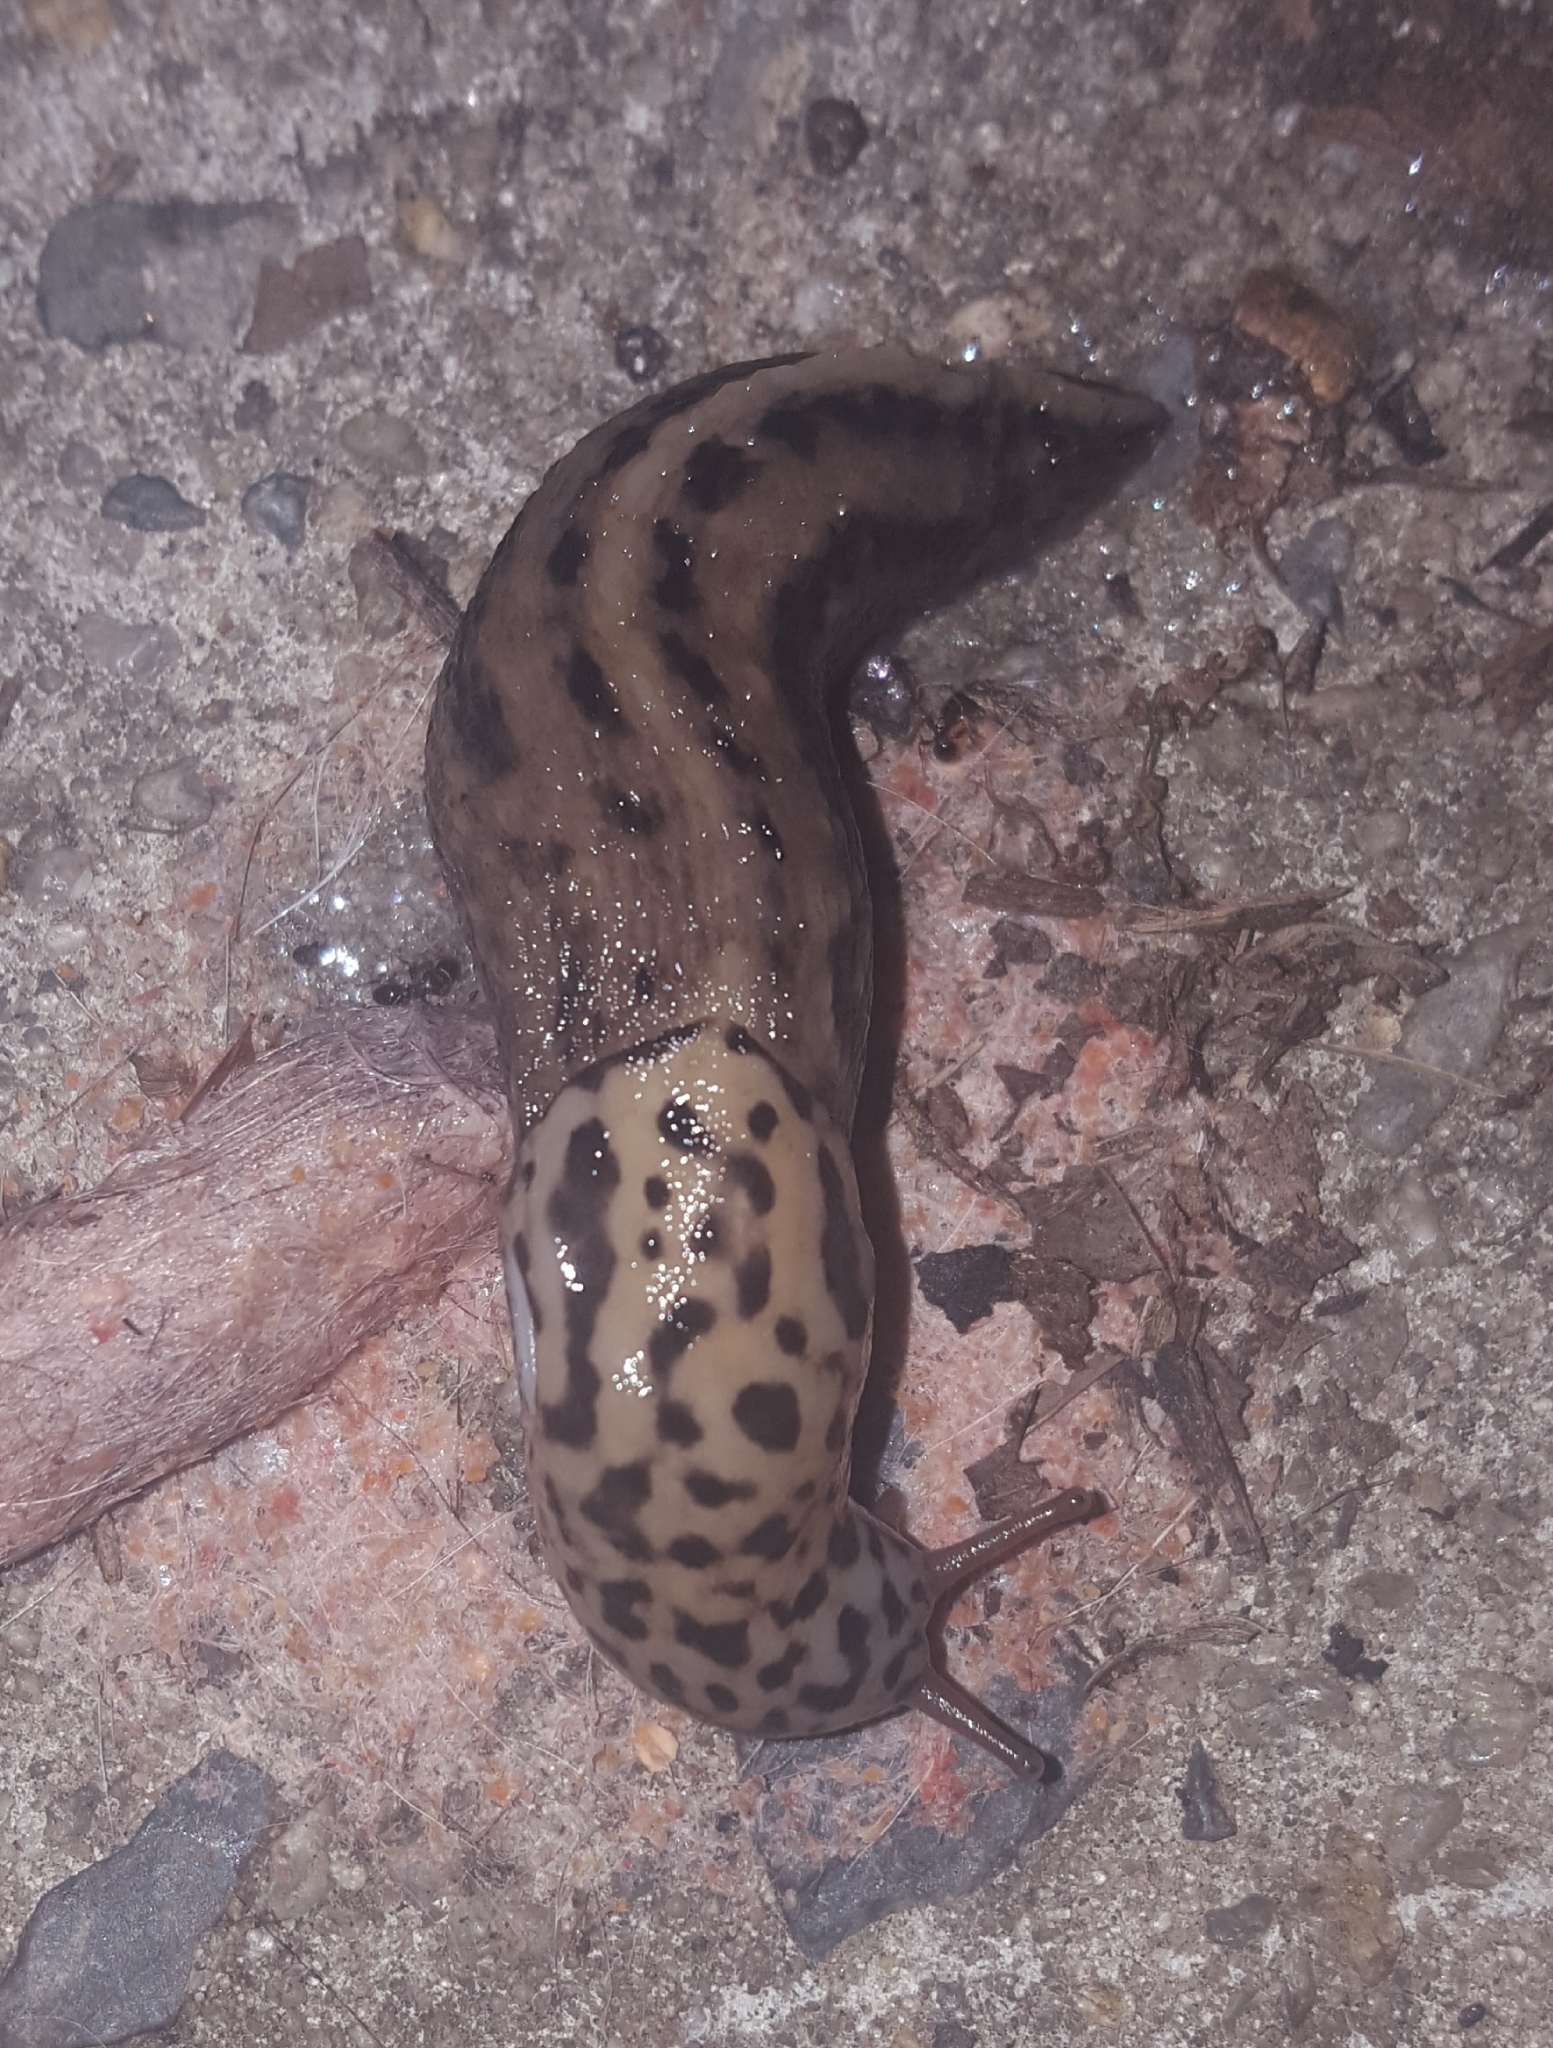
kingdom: Animalia
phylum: Mollusca
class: Gastropoda
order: Stylommatophora
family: Limacidae
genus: Limax
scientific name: Limax maximus
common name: Great grey slug
